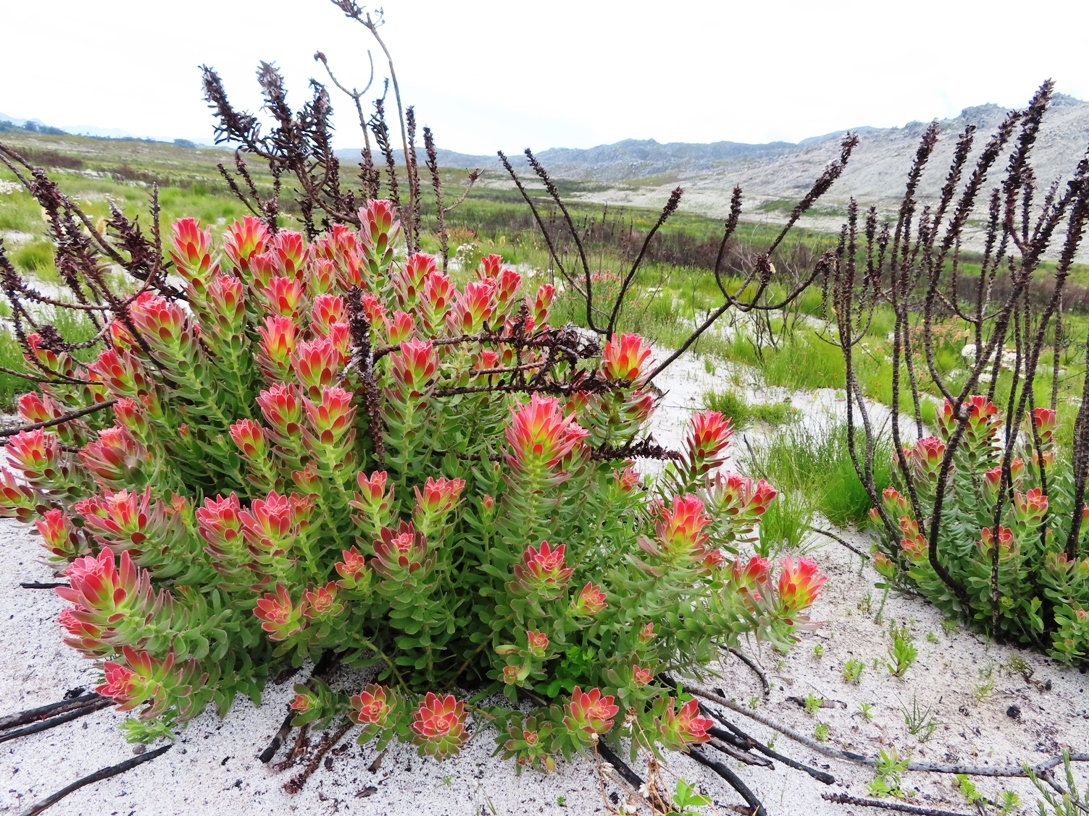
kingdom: Plantae
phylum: Tracheophyta
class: Magnoliopsida
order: Proteales
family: Proteaceae
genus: Mimetes
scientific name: Mimetes cucullatus
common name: Common pagoda
